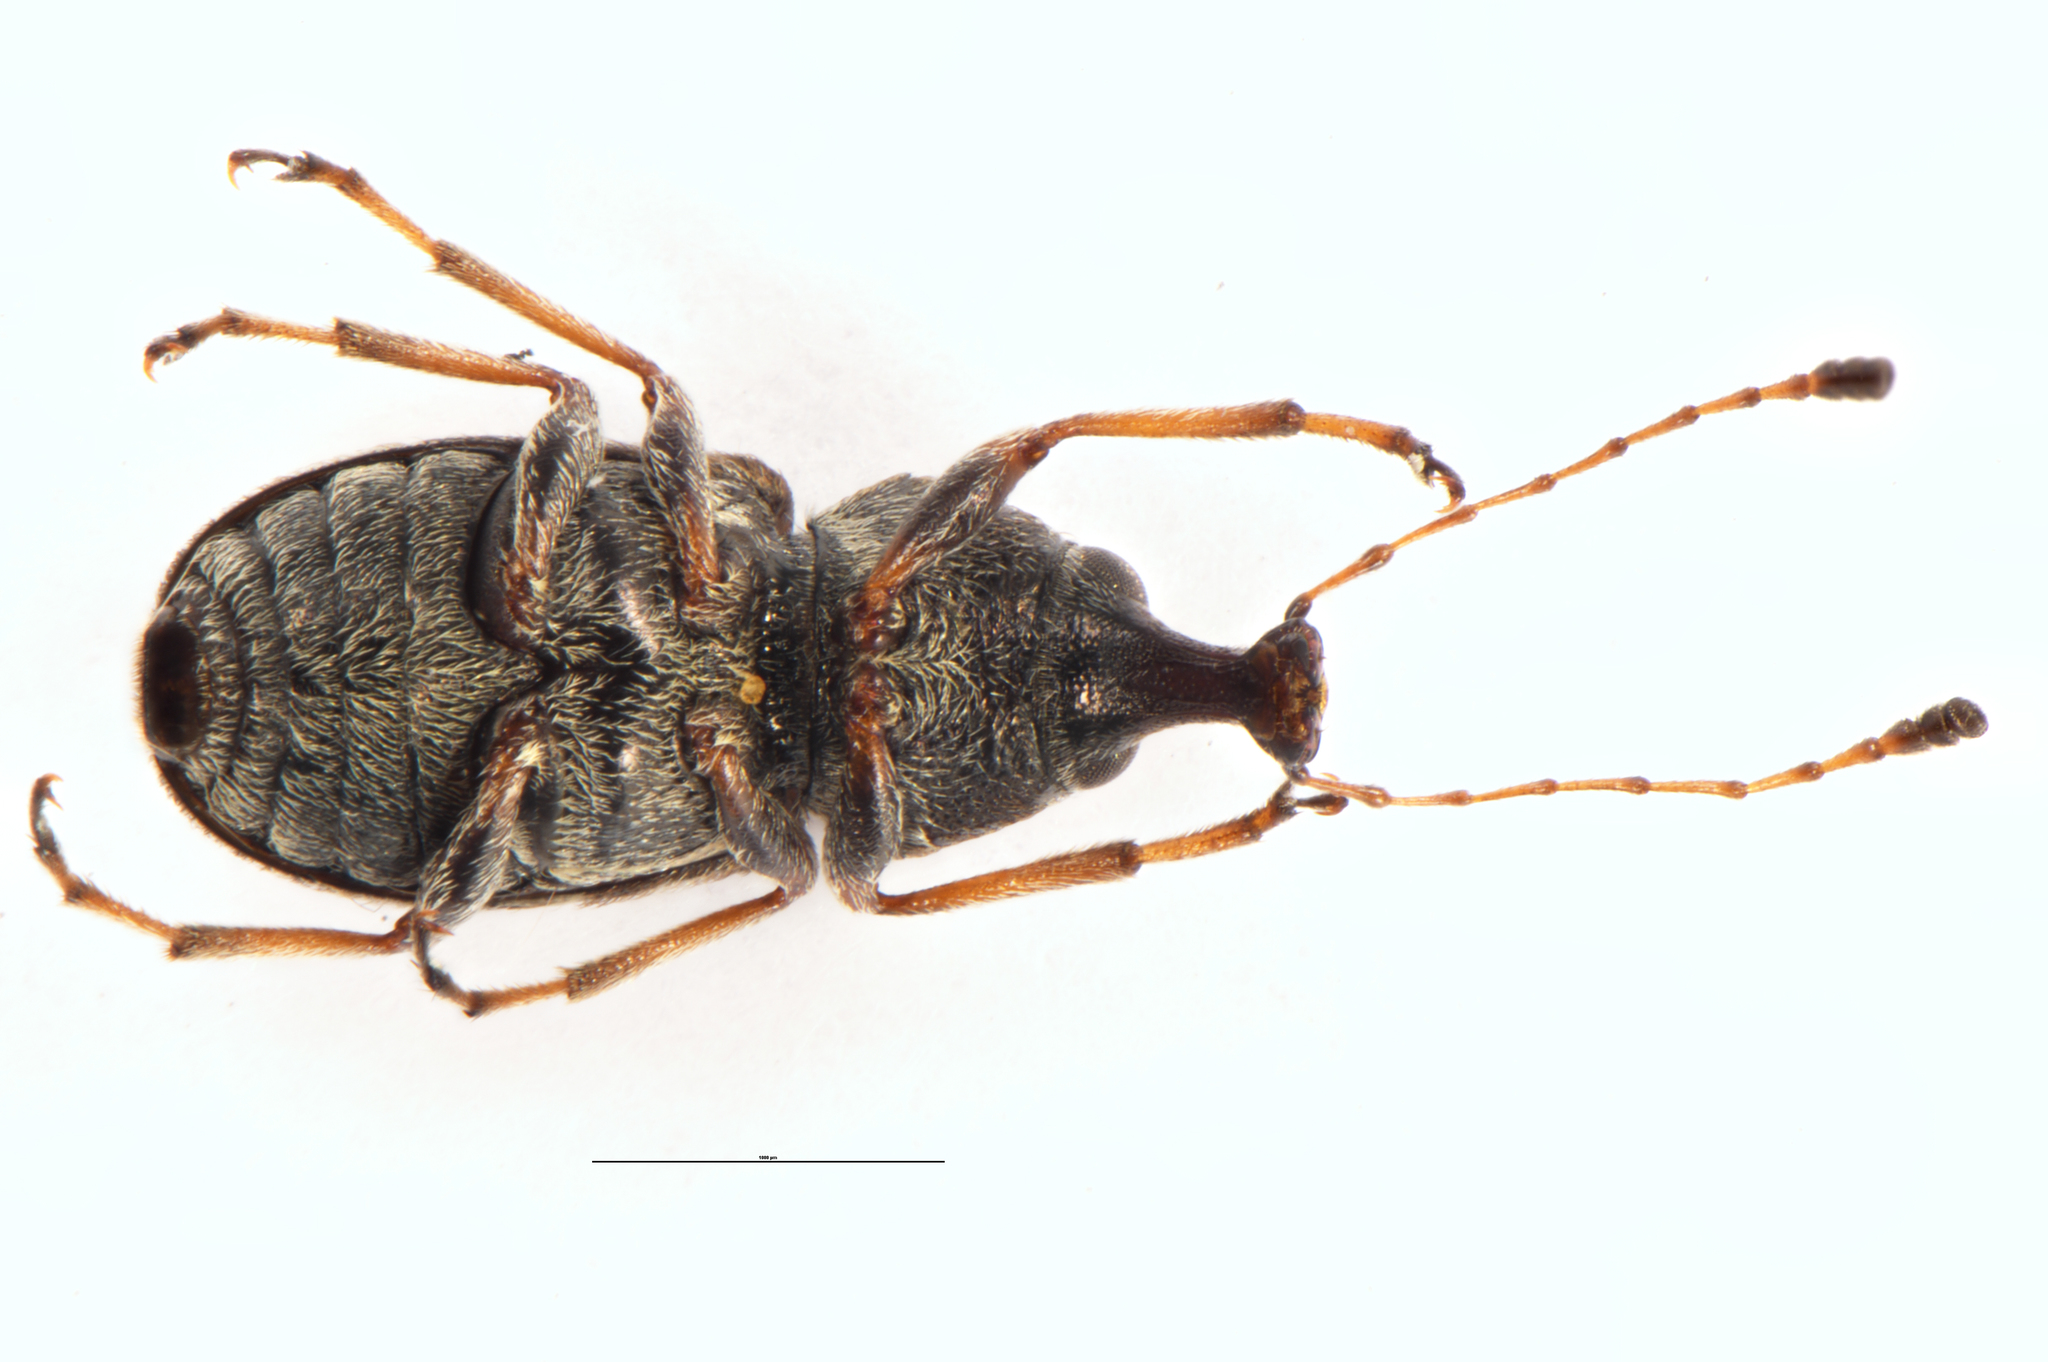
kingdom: Animalia
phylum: Arthropoda
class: Insecta
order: Coleoptera
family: Anthribidae
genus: Helmoreus
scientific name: Helmoreus
